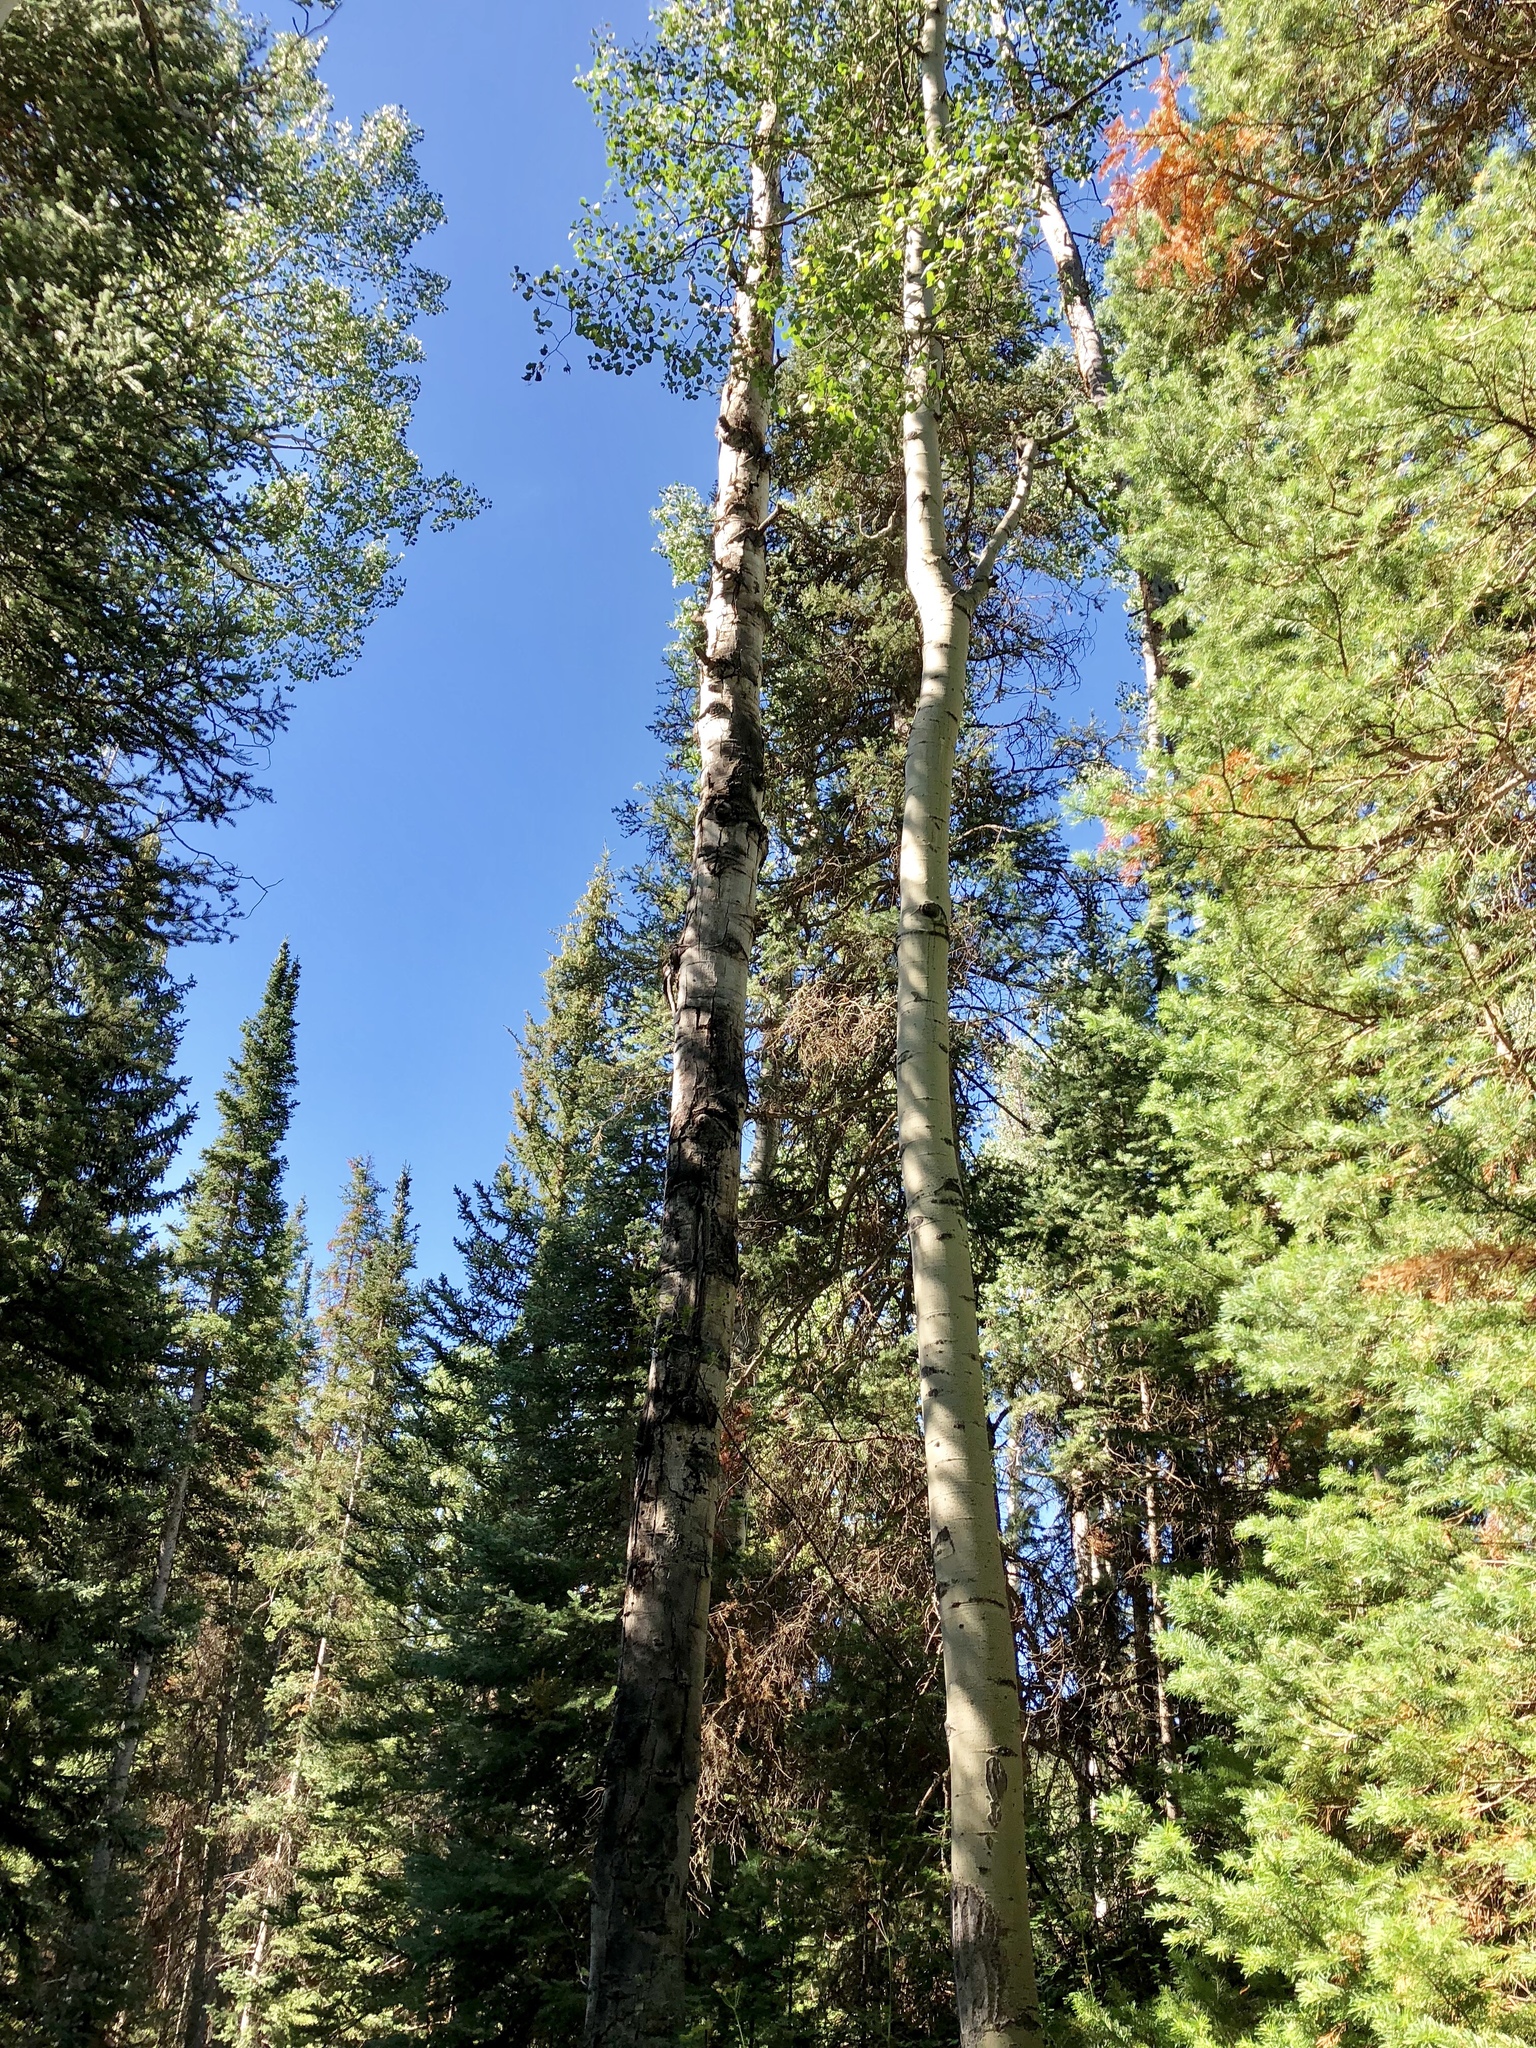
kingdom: Plantae
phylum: Tracheophyta
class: Magnoliopsida
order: Malpighiales
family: Salicaceae
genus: Populus
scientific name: Populus tremuloides
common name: Quaking aspen
